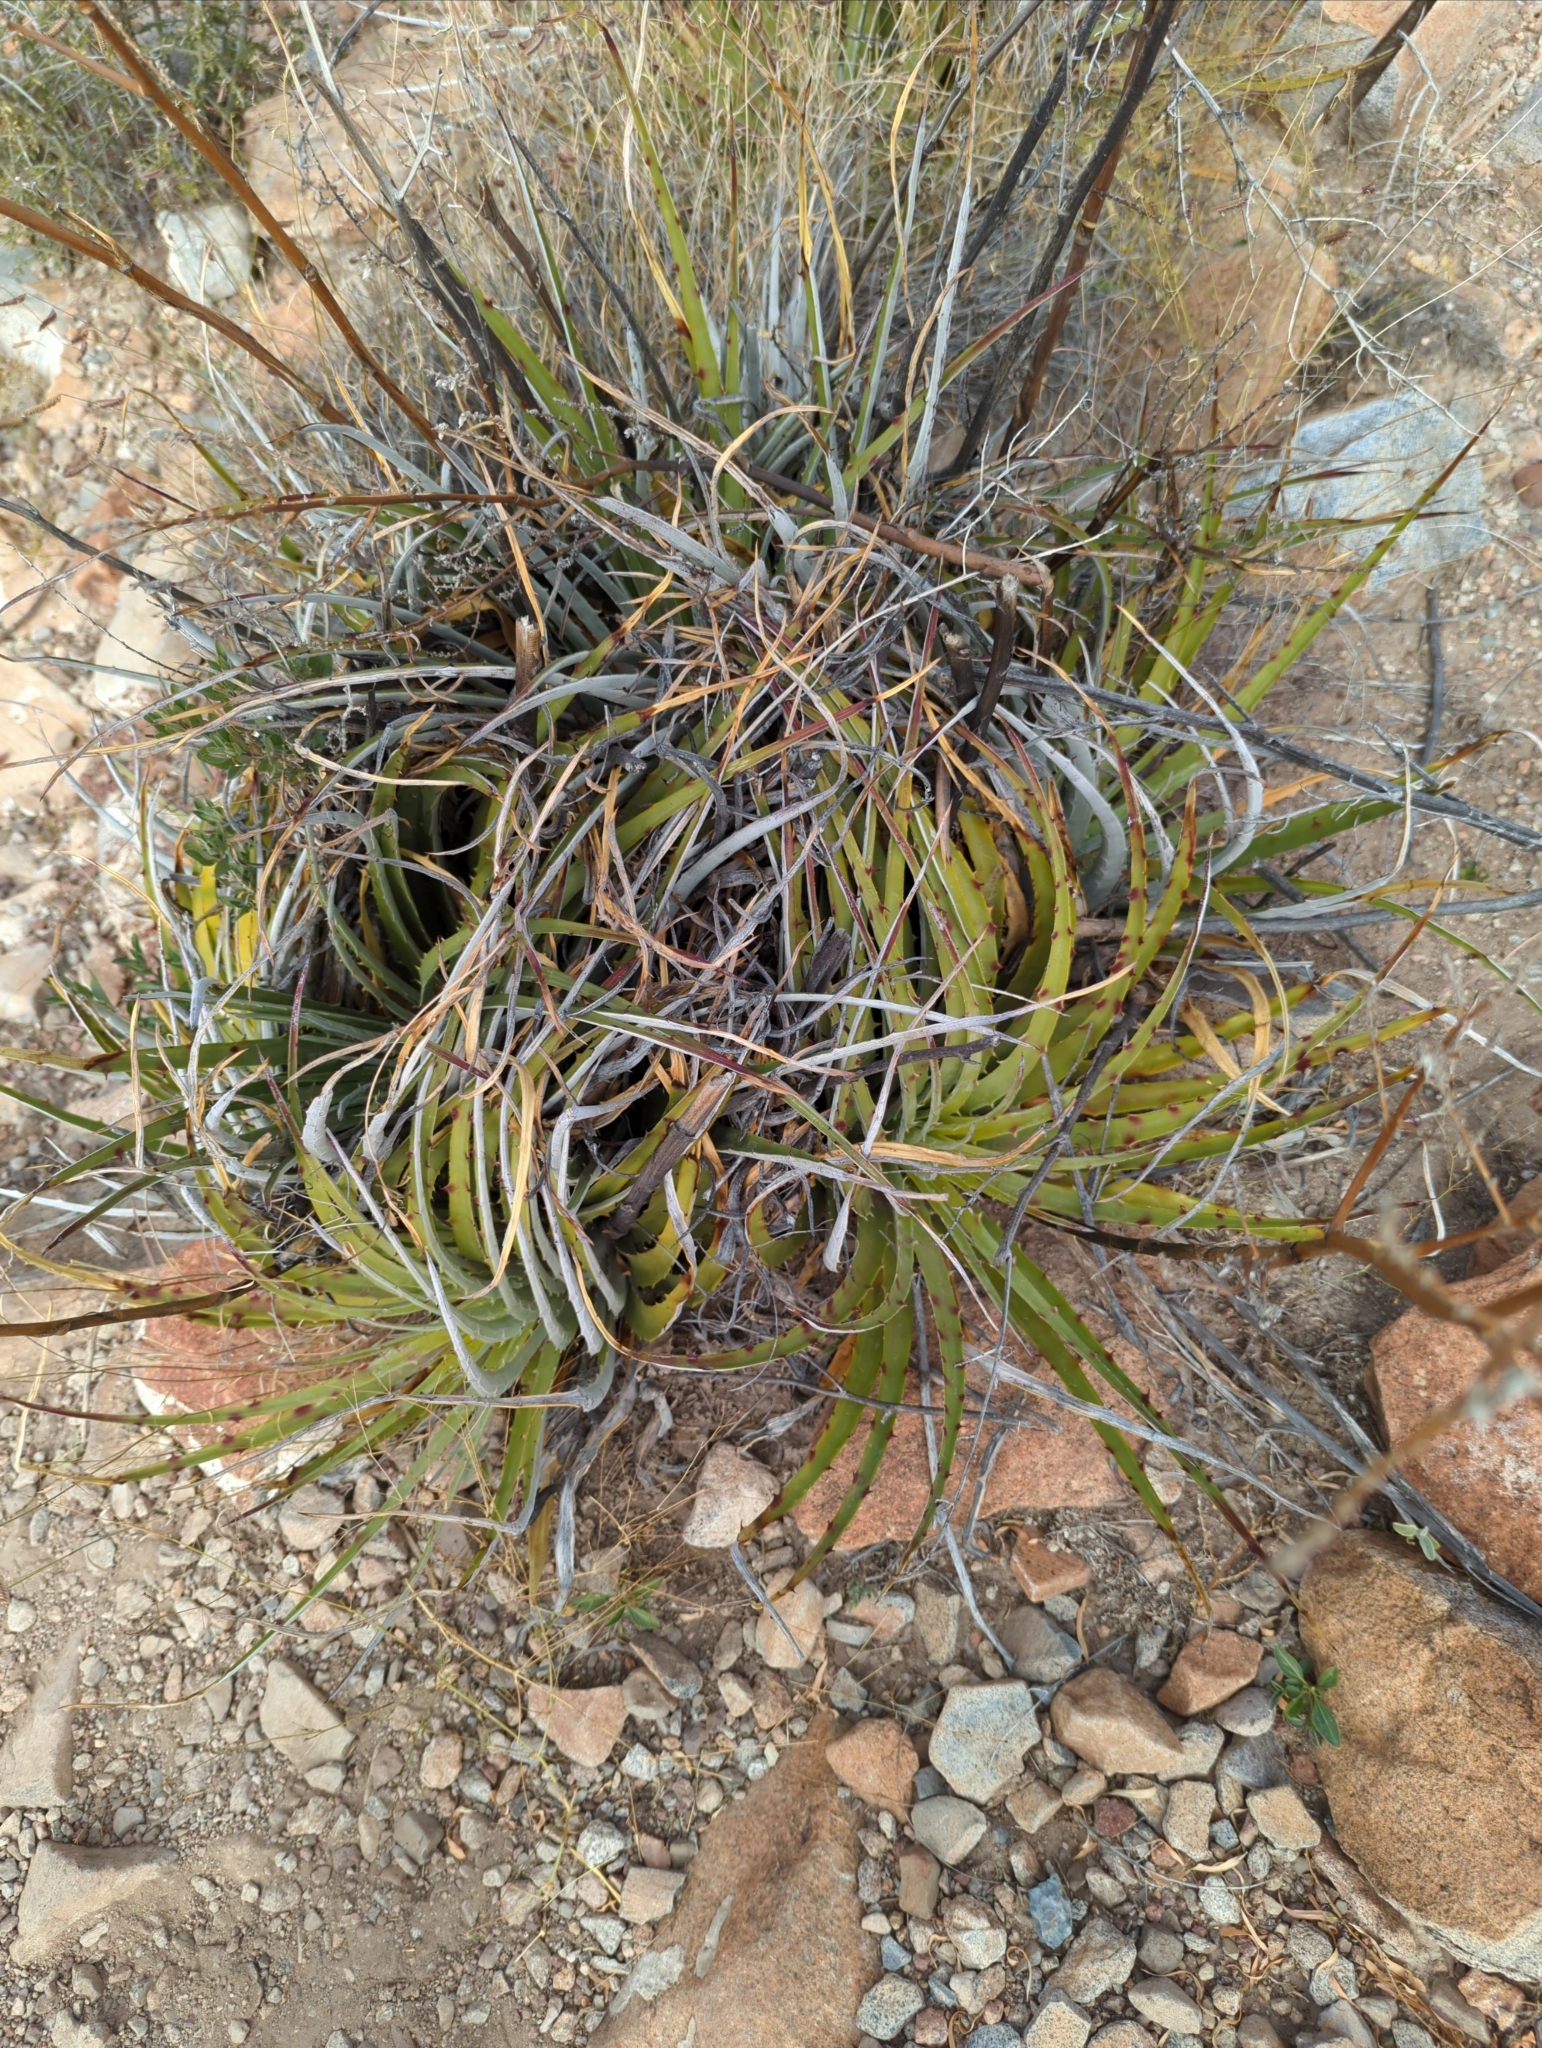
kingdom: Plantae
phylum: Tracheophyta
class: Liliopsida
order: Poales
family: Bromeliaceae
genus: Hechtia
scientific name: Hechtia texensis
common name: False agave
